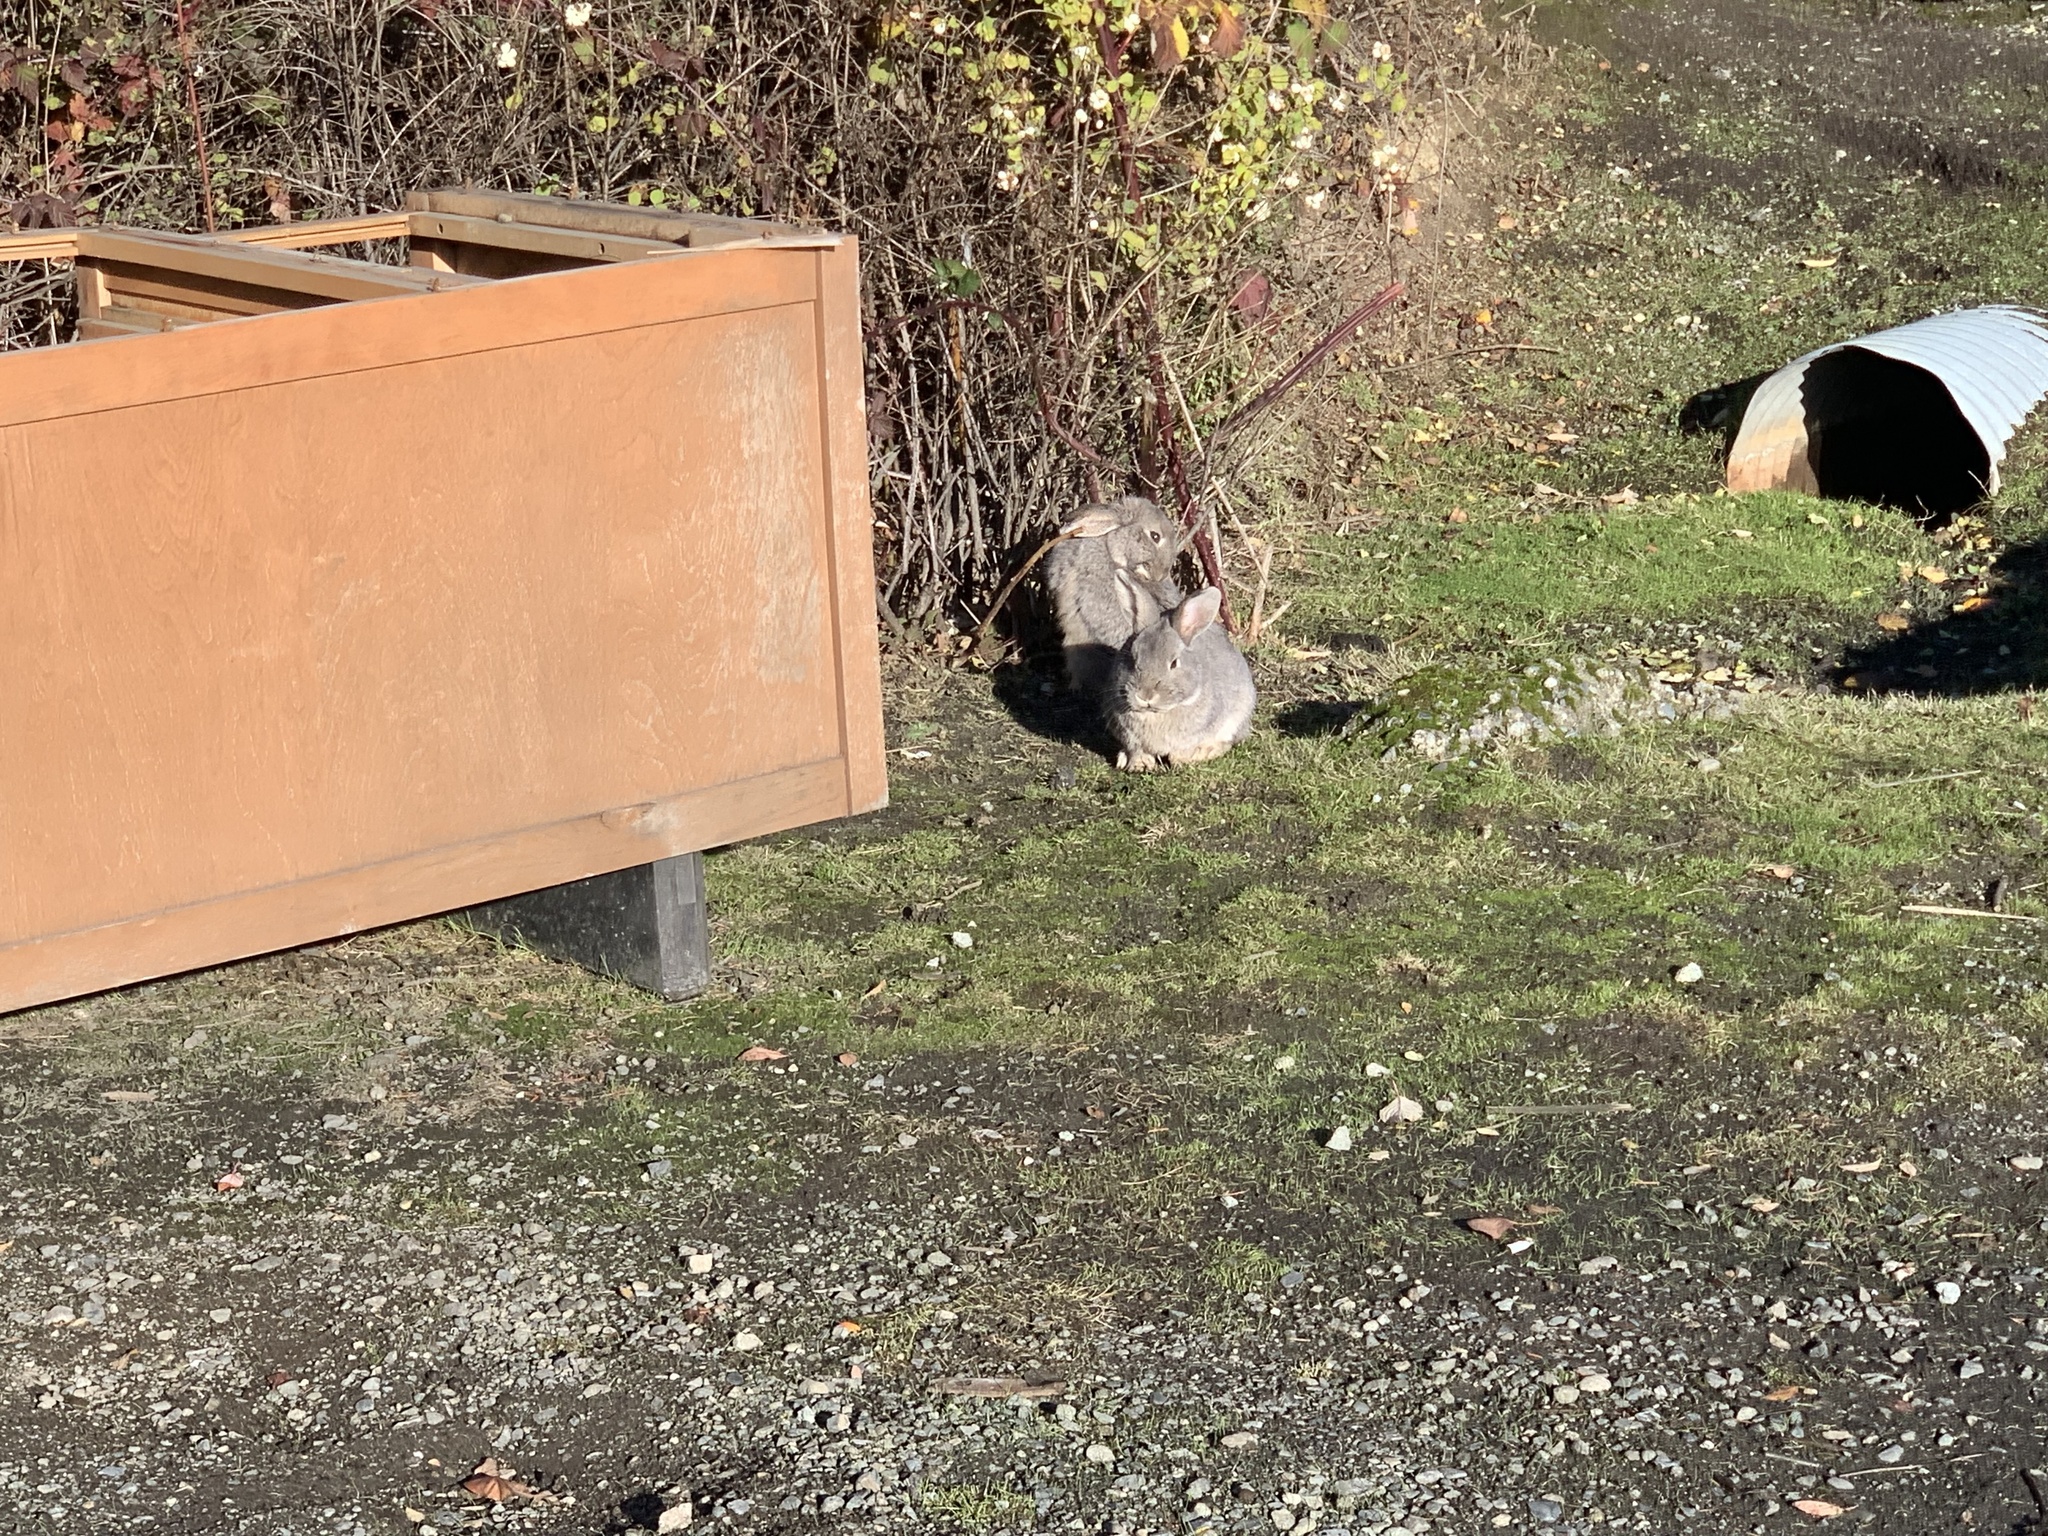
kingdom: Animalia
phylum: Chordata
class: Mammalia
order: Lagomorpha
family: Leporidae
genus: Oryctolagus
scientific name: Oryctolagus cuniculus
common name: European rabbit
